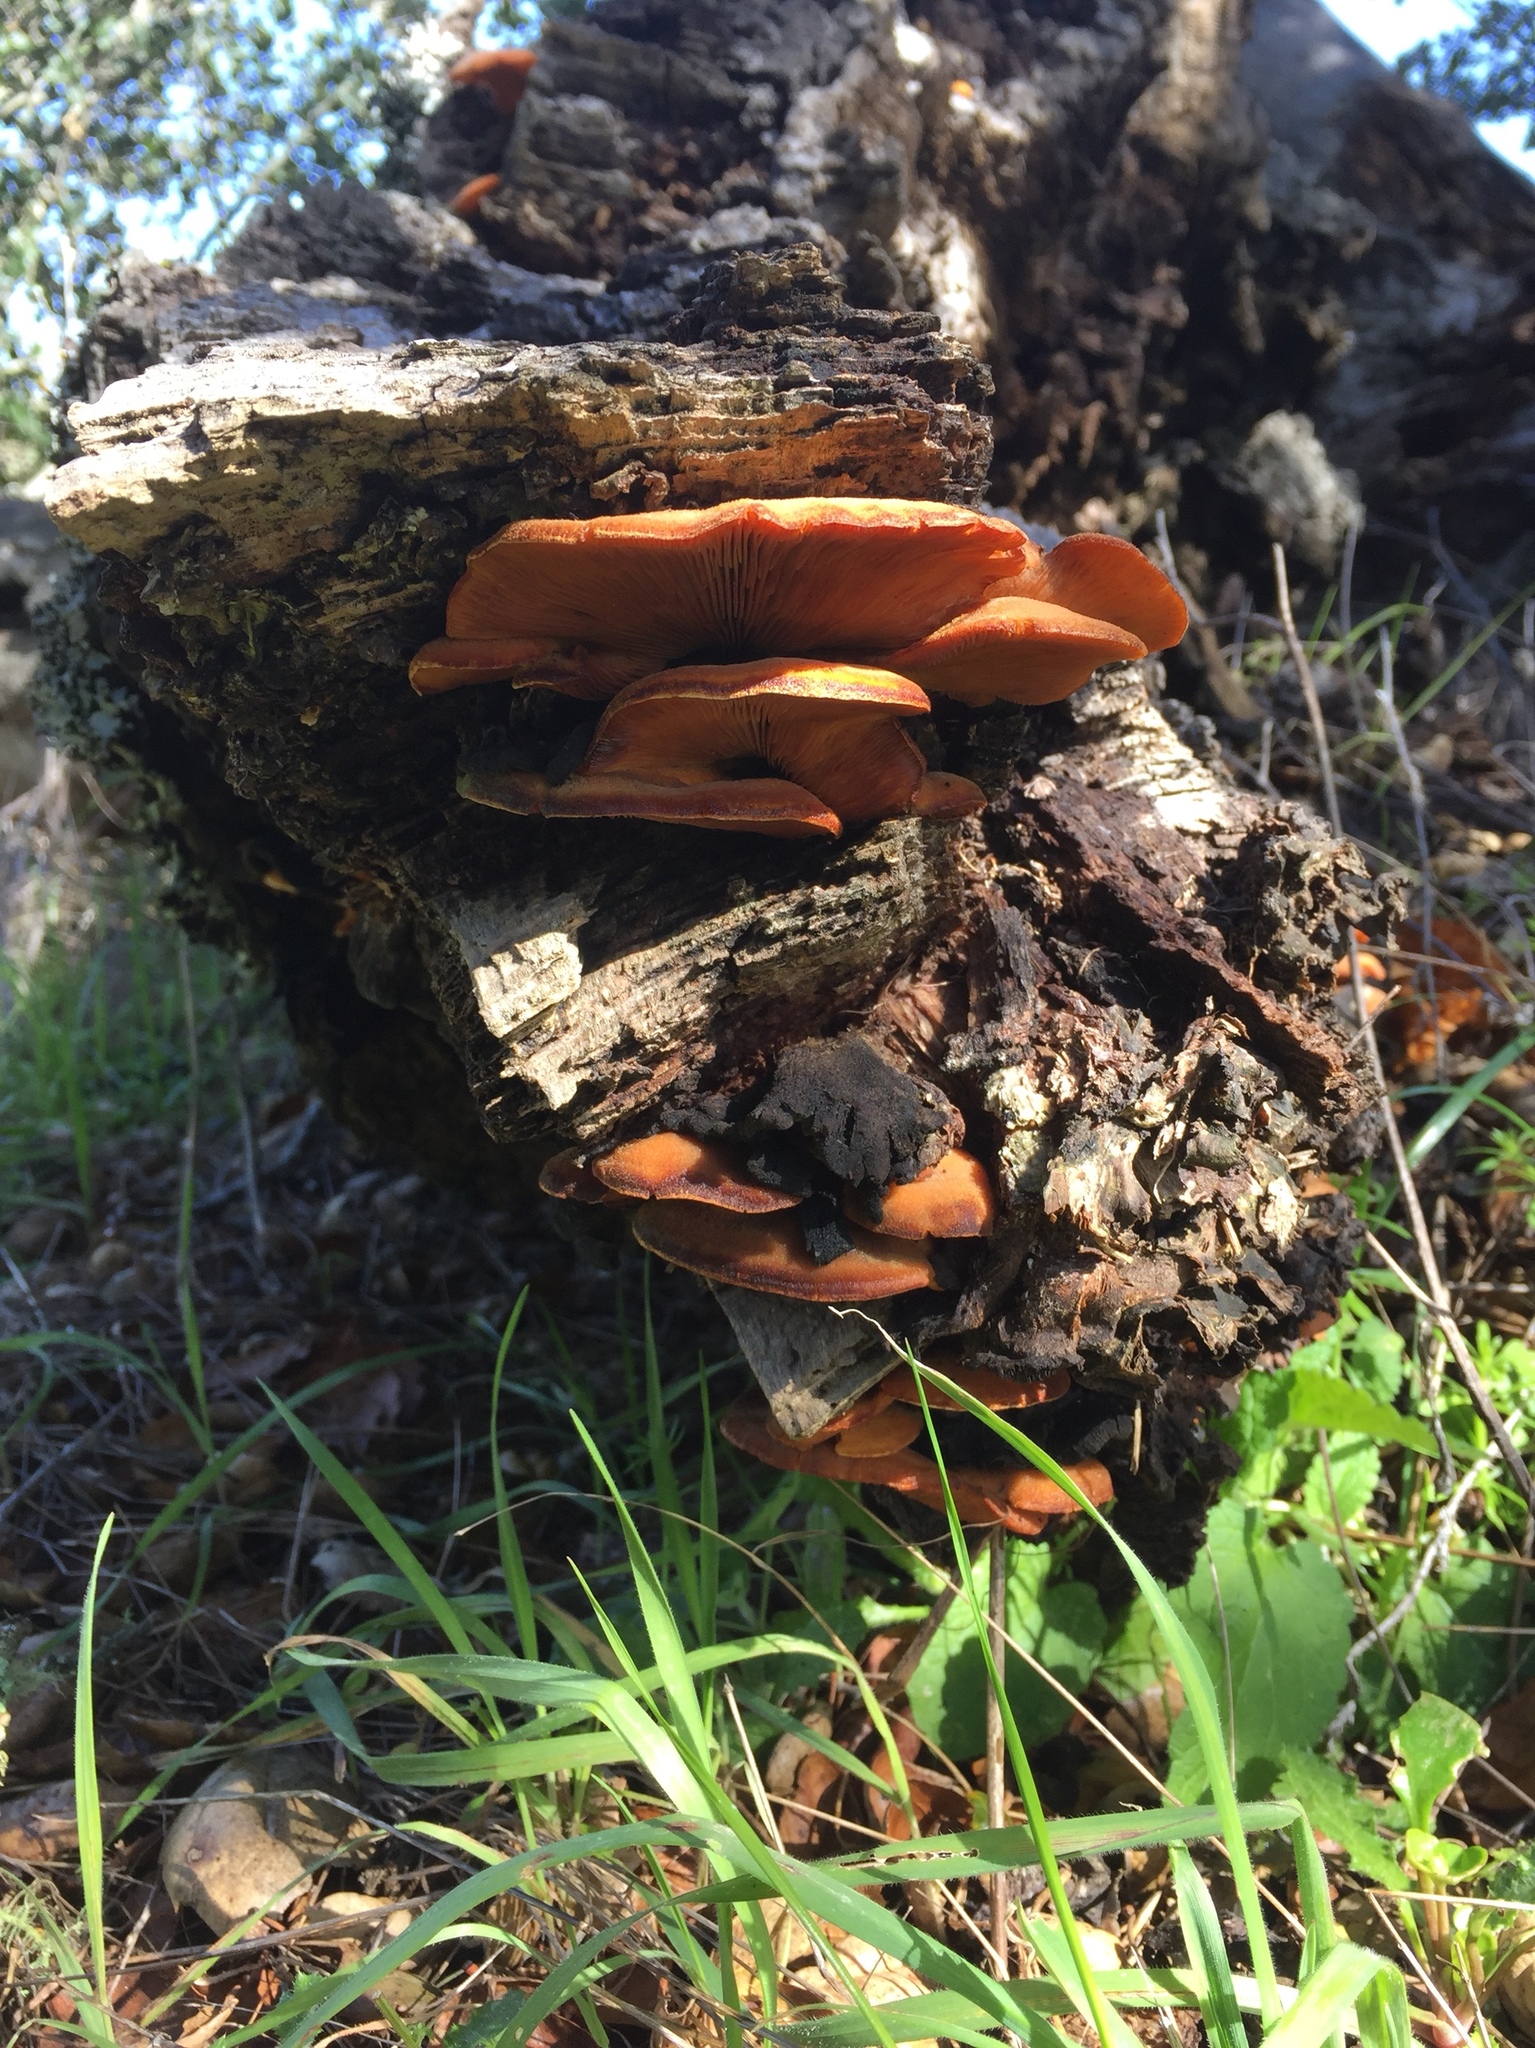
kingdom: Fungi
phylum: Basidiomycota
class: Agaricomycetes
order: Agaricales
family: Phyllotopsidaceae
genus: Phyllotopsis
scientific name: Phyllotopsis nidulans
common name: Orange mock oyster
